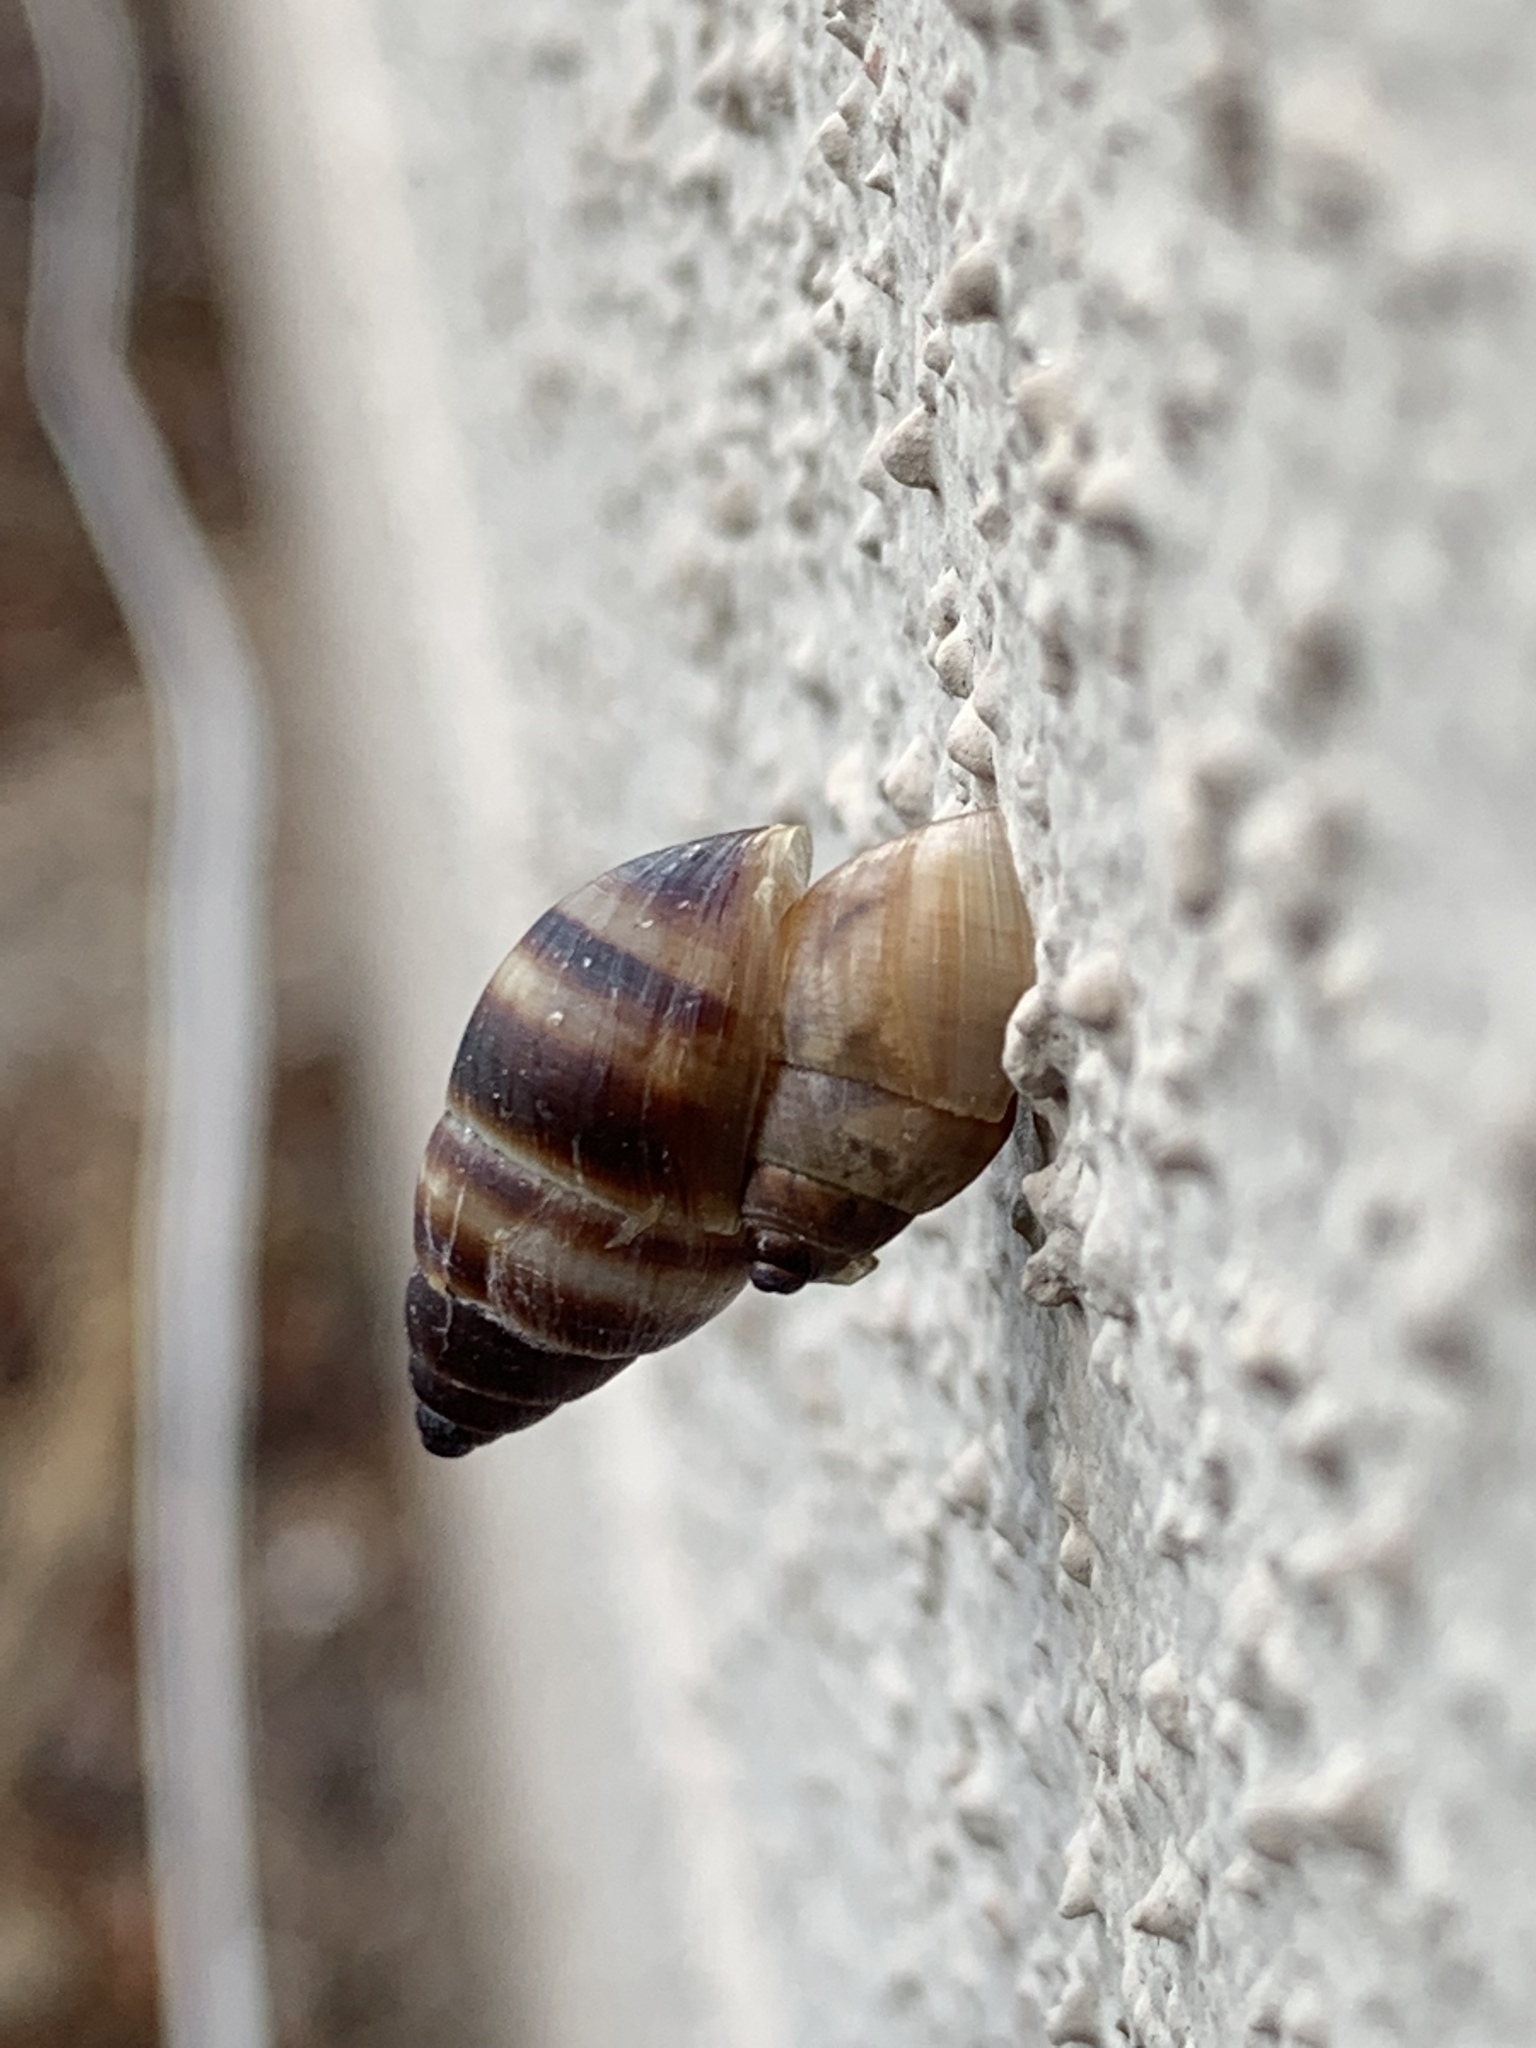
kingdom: Animalia
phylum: Mollusca
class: Gastropoda
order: Stylommatophora
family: Bulimulidae
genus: Bulimulus
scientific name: Bulimulus guadalupensis
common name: West indian bulimulus
